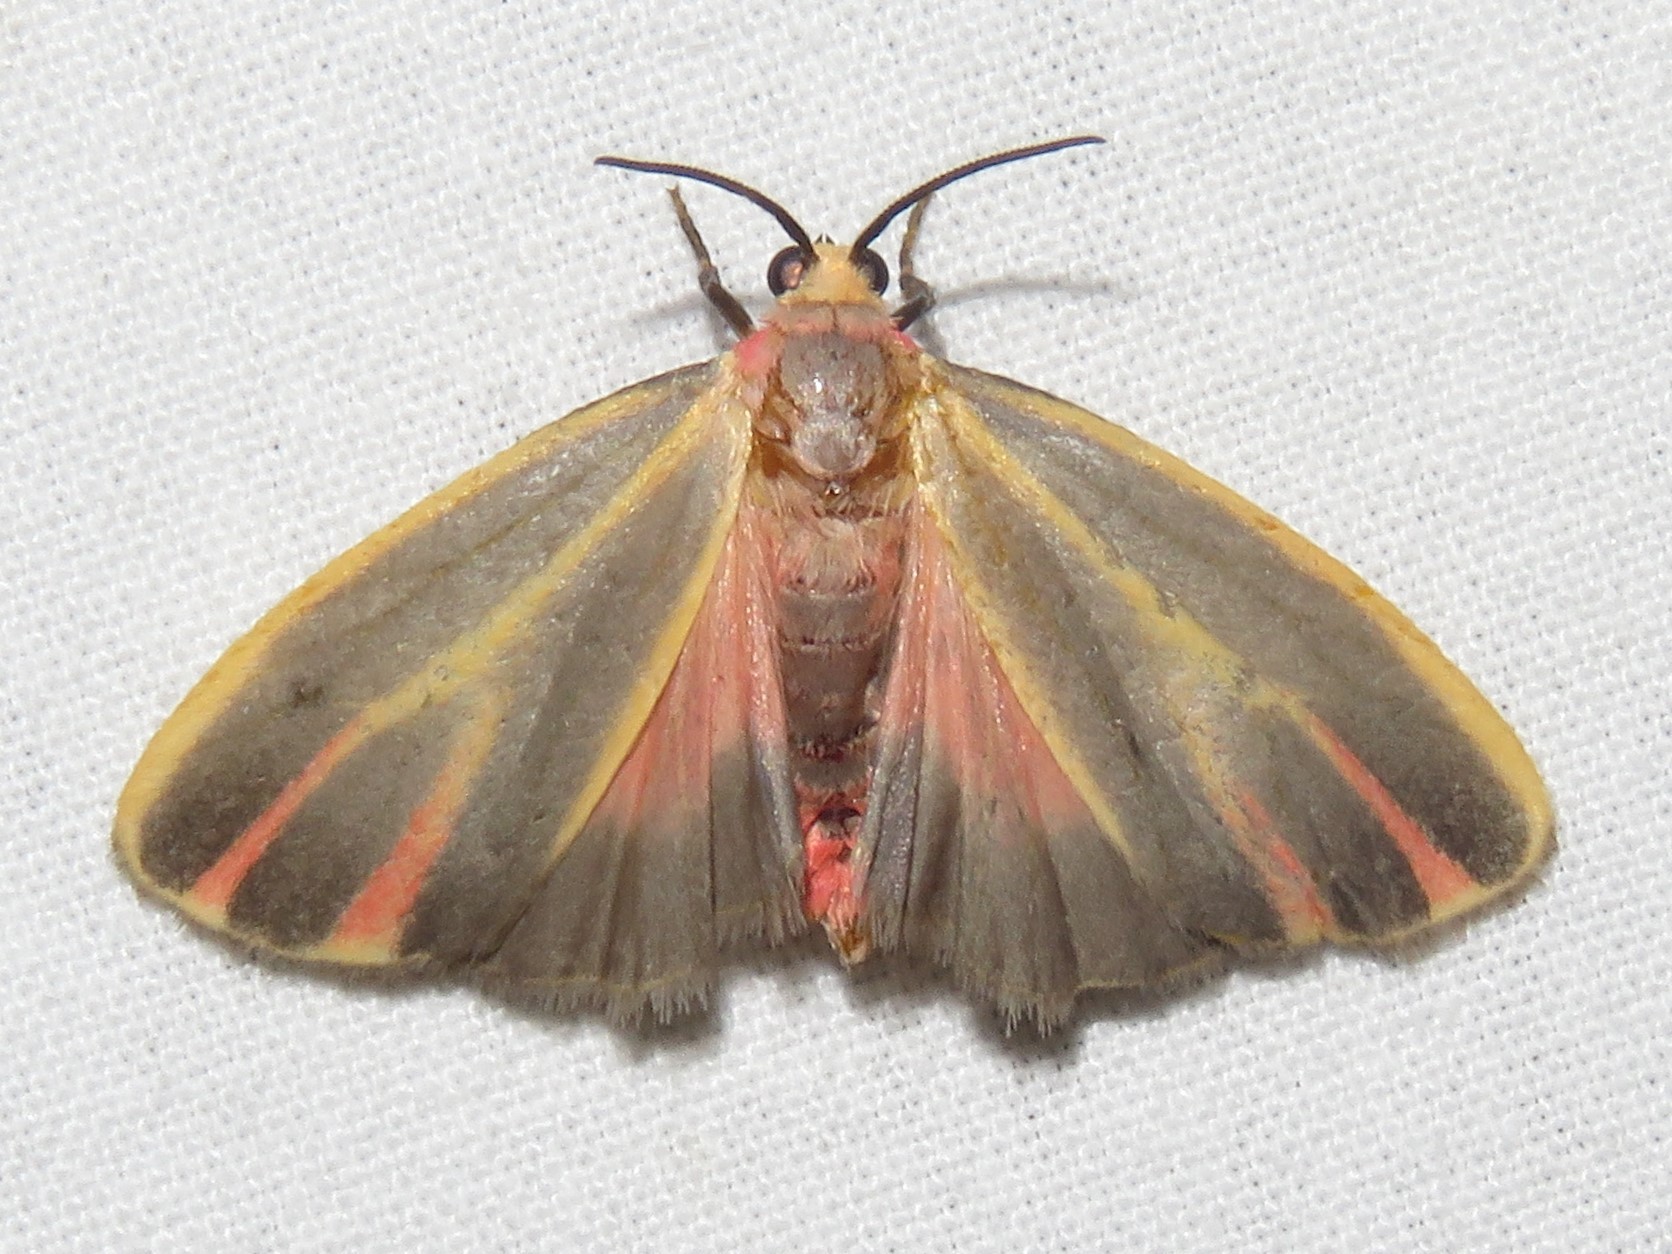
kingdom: Animalia
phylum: Arthropoda
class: Insecta
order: Lepidoptera
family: Erebidae
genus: Hypoprepia
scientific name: Hypoprepia fucosa
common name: Painted lichen moth
